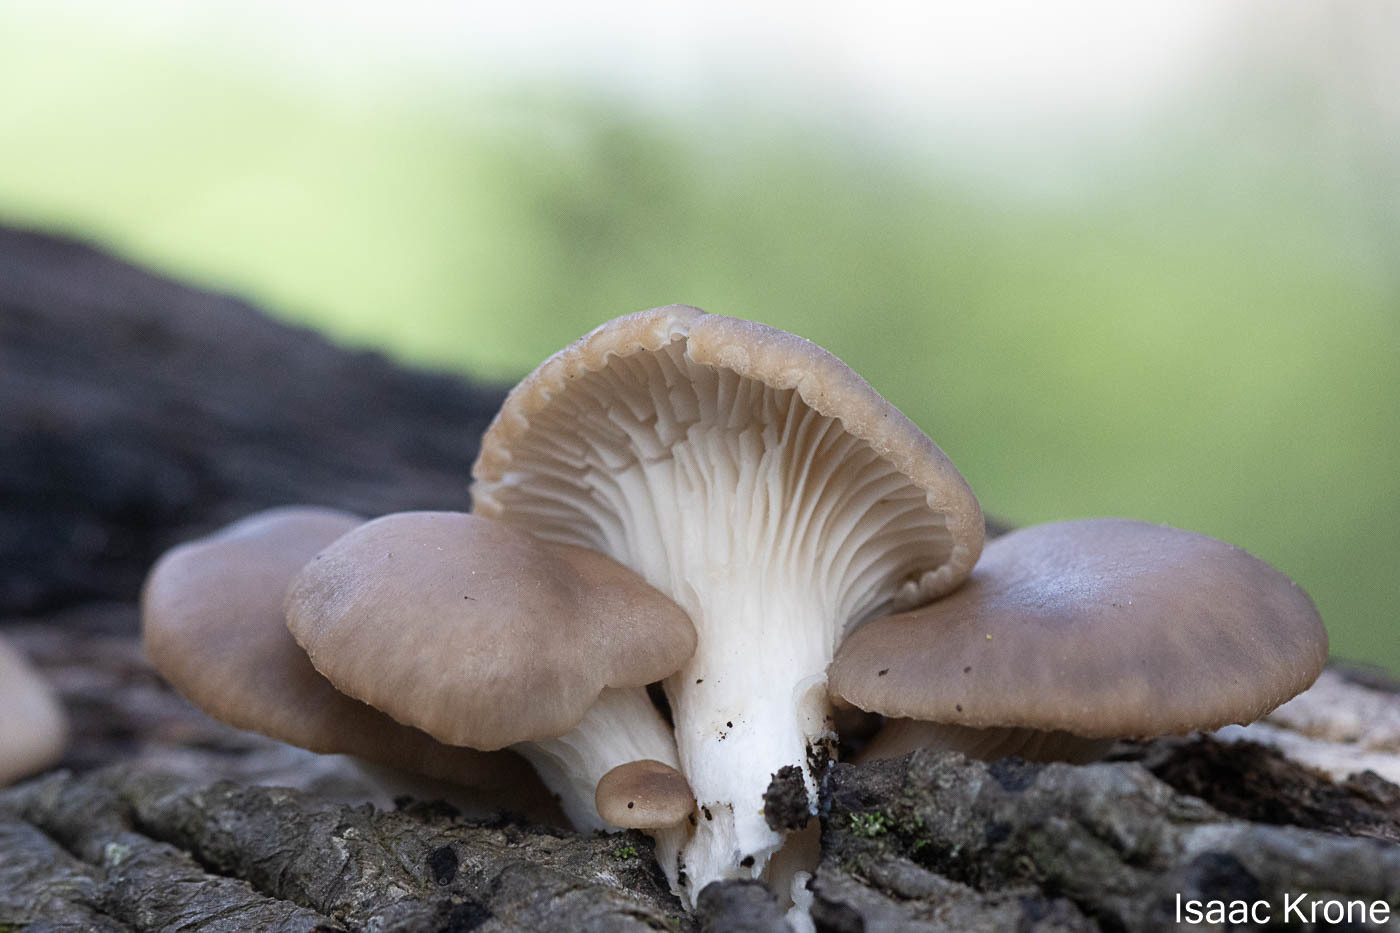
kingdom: Fungi
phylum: Basidiomycota
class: Agaricomycetes
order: Agaricales
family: Pleurotaceae
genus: Pleurotus
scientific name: Pleurotus ostreatus
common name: Oyster mushroom
